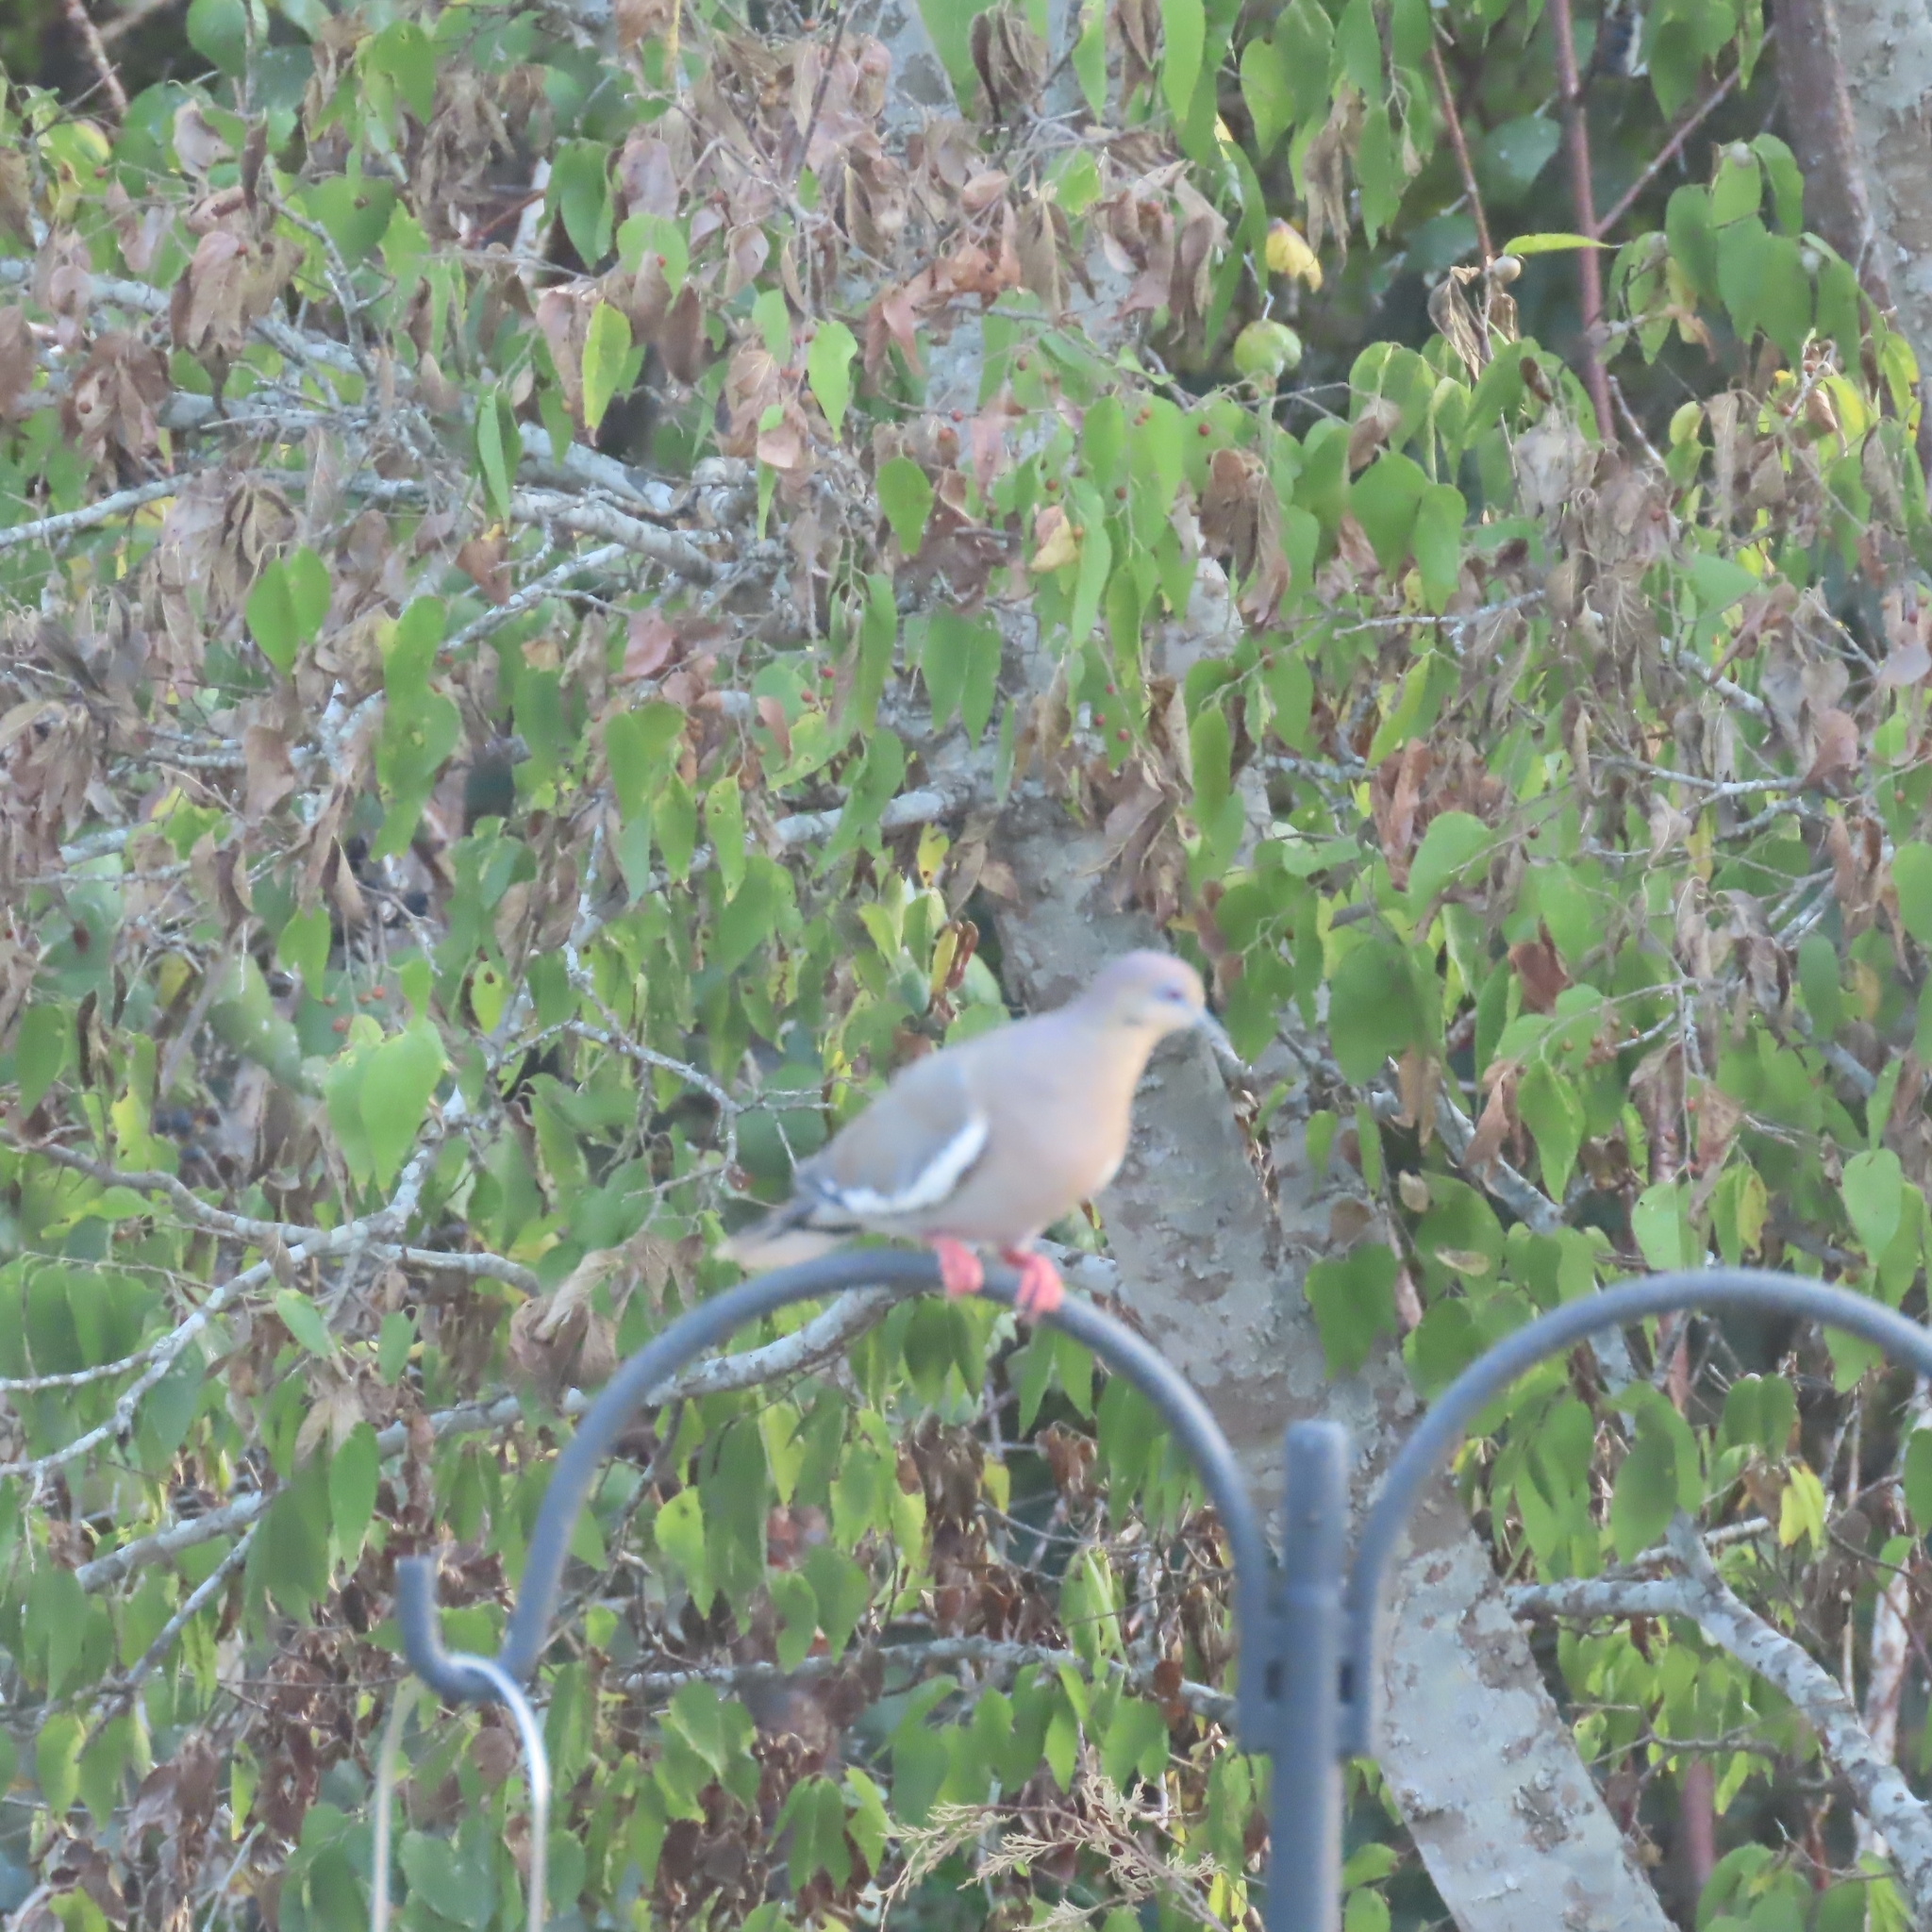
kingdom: Animalia
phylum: Chordata
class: Aves
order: Columbiformes
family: Columbidae
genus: Zenaida
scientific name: Zenaida asiatica
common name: White-winged dove
